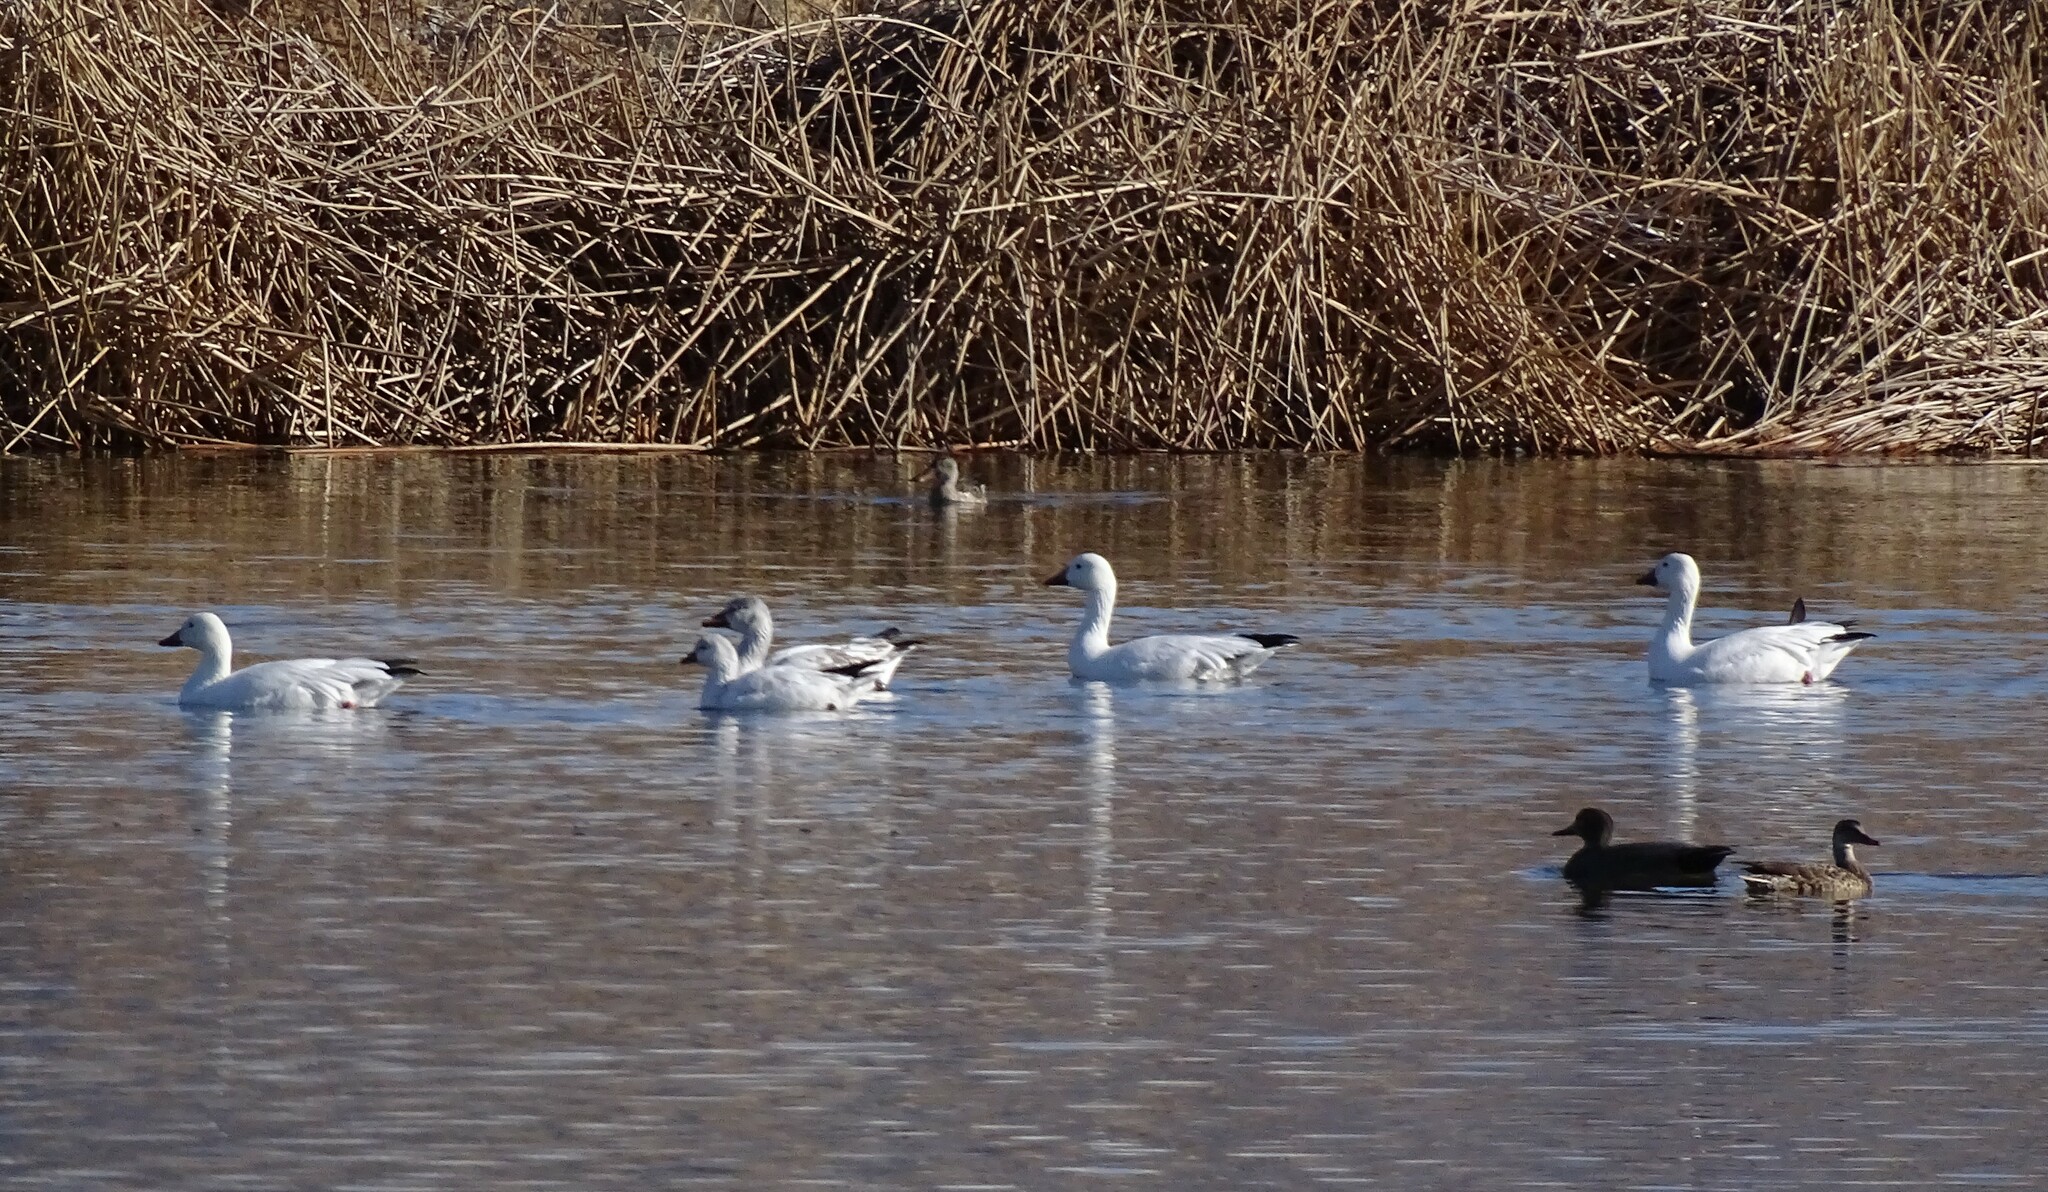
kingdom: Animalia
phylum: Chordata
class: Aves
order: Anseriformes
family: Anatidae
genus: Anser
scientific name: Anser rossii
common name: Ross's goose
